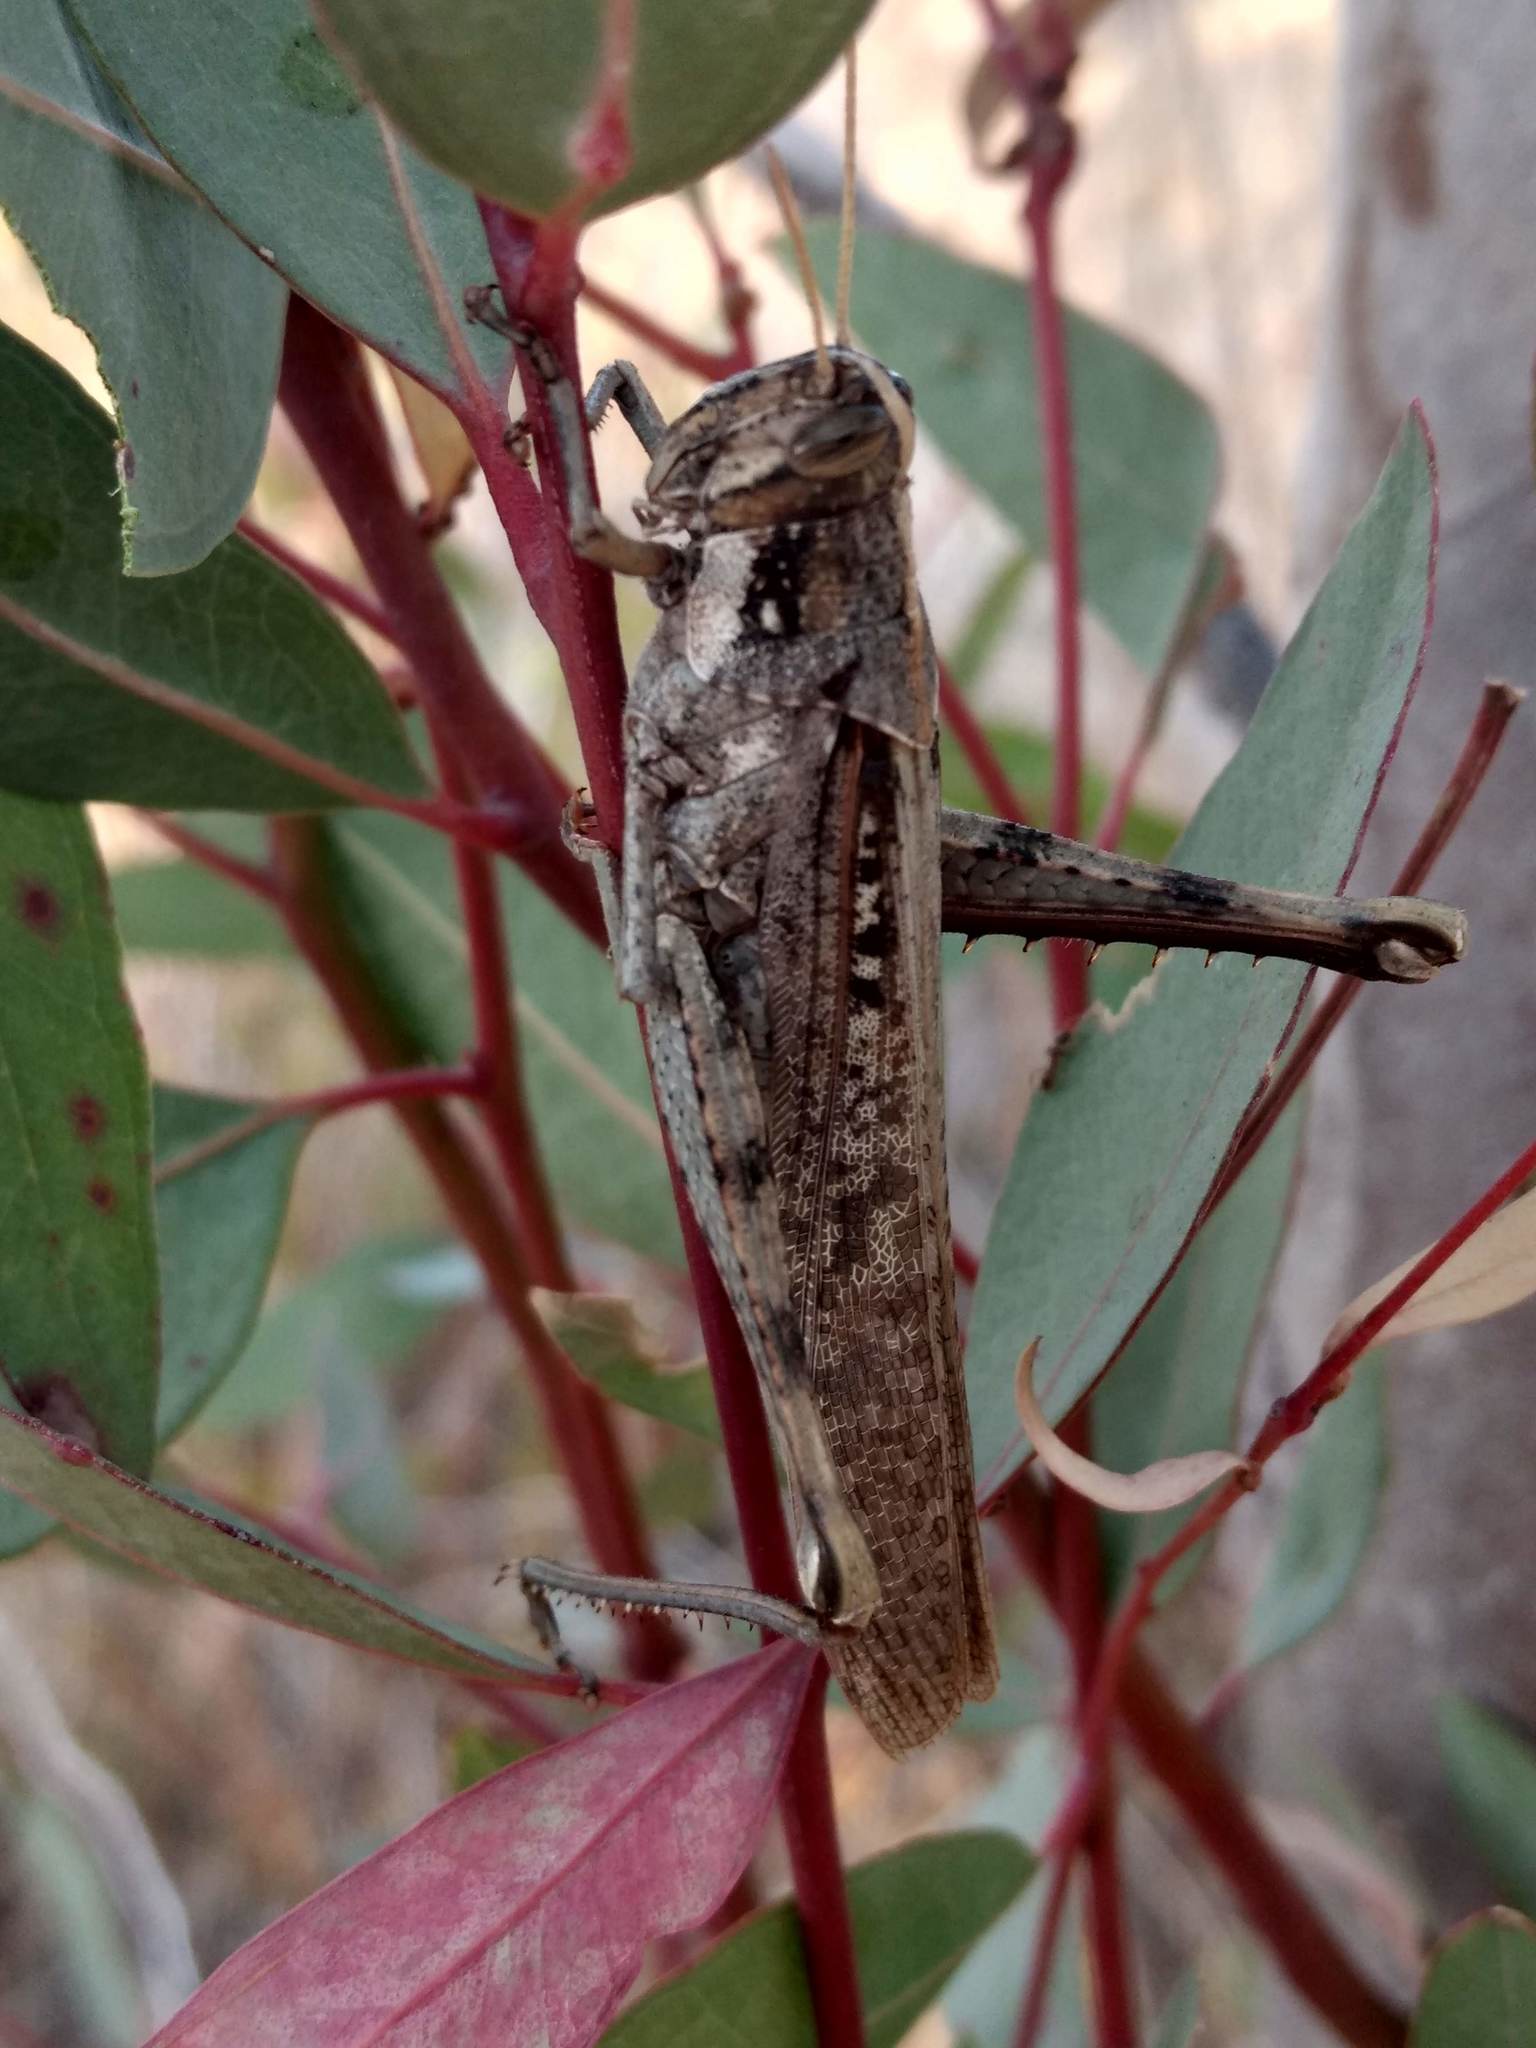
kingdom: Animalia
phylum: Arthropoda
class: Insecta
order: Orthoptera
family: Acrididae
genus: Schistocerca
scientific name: Schistocerca nitens
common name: Vagrant grasshopper
